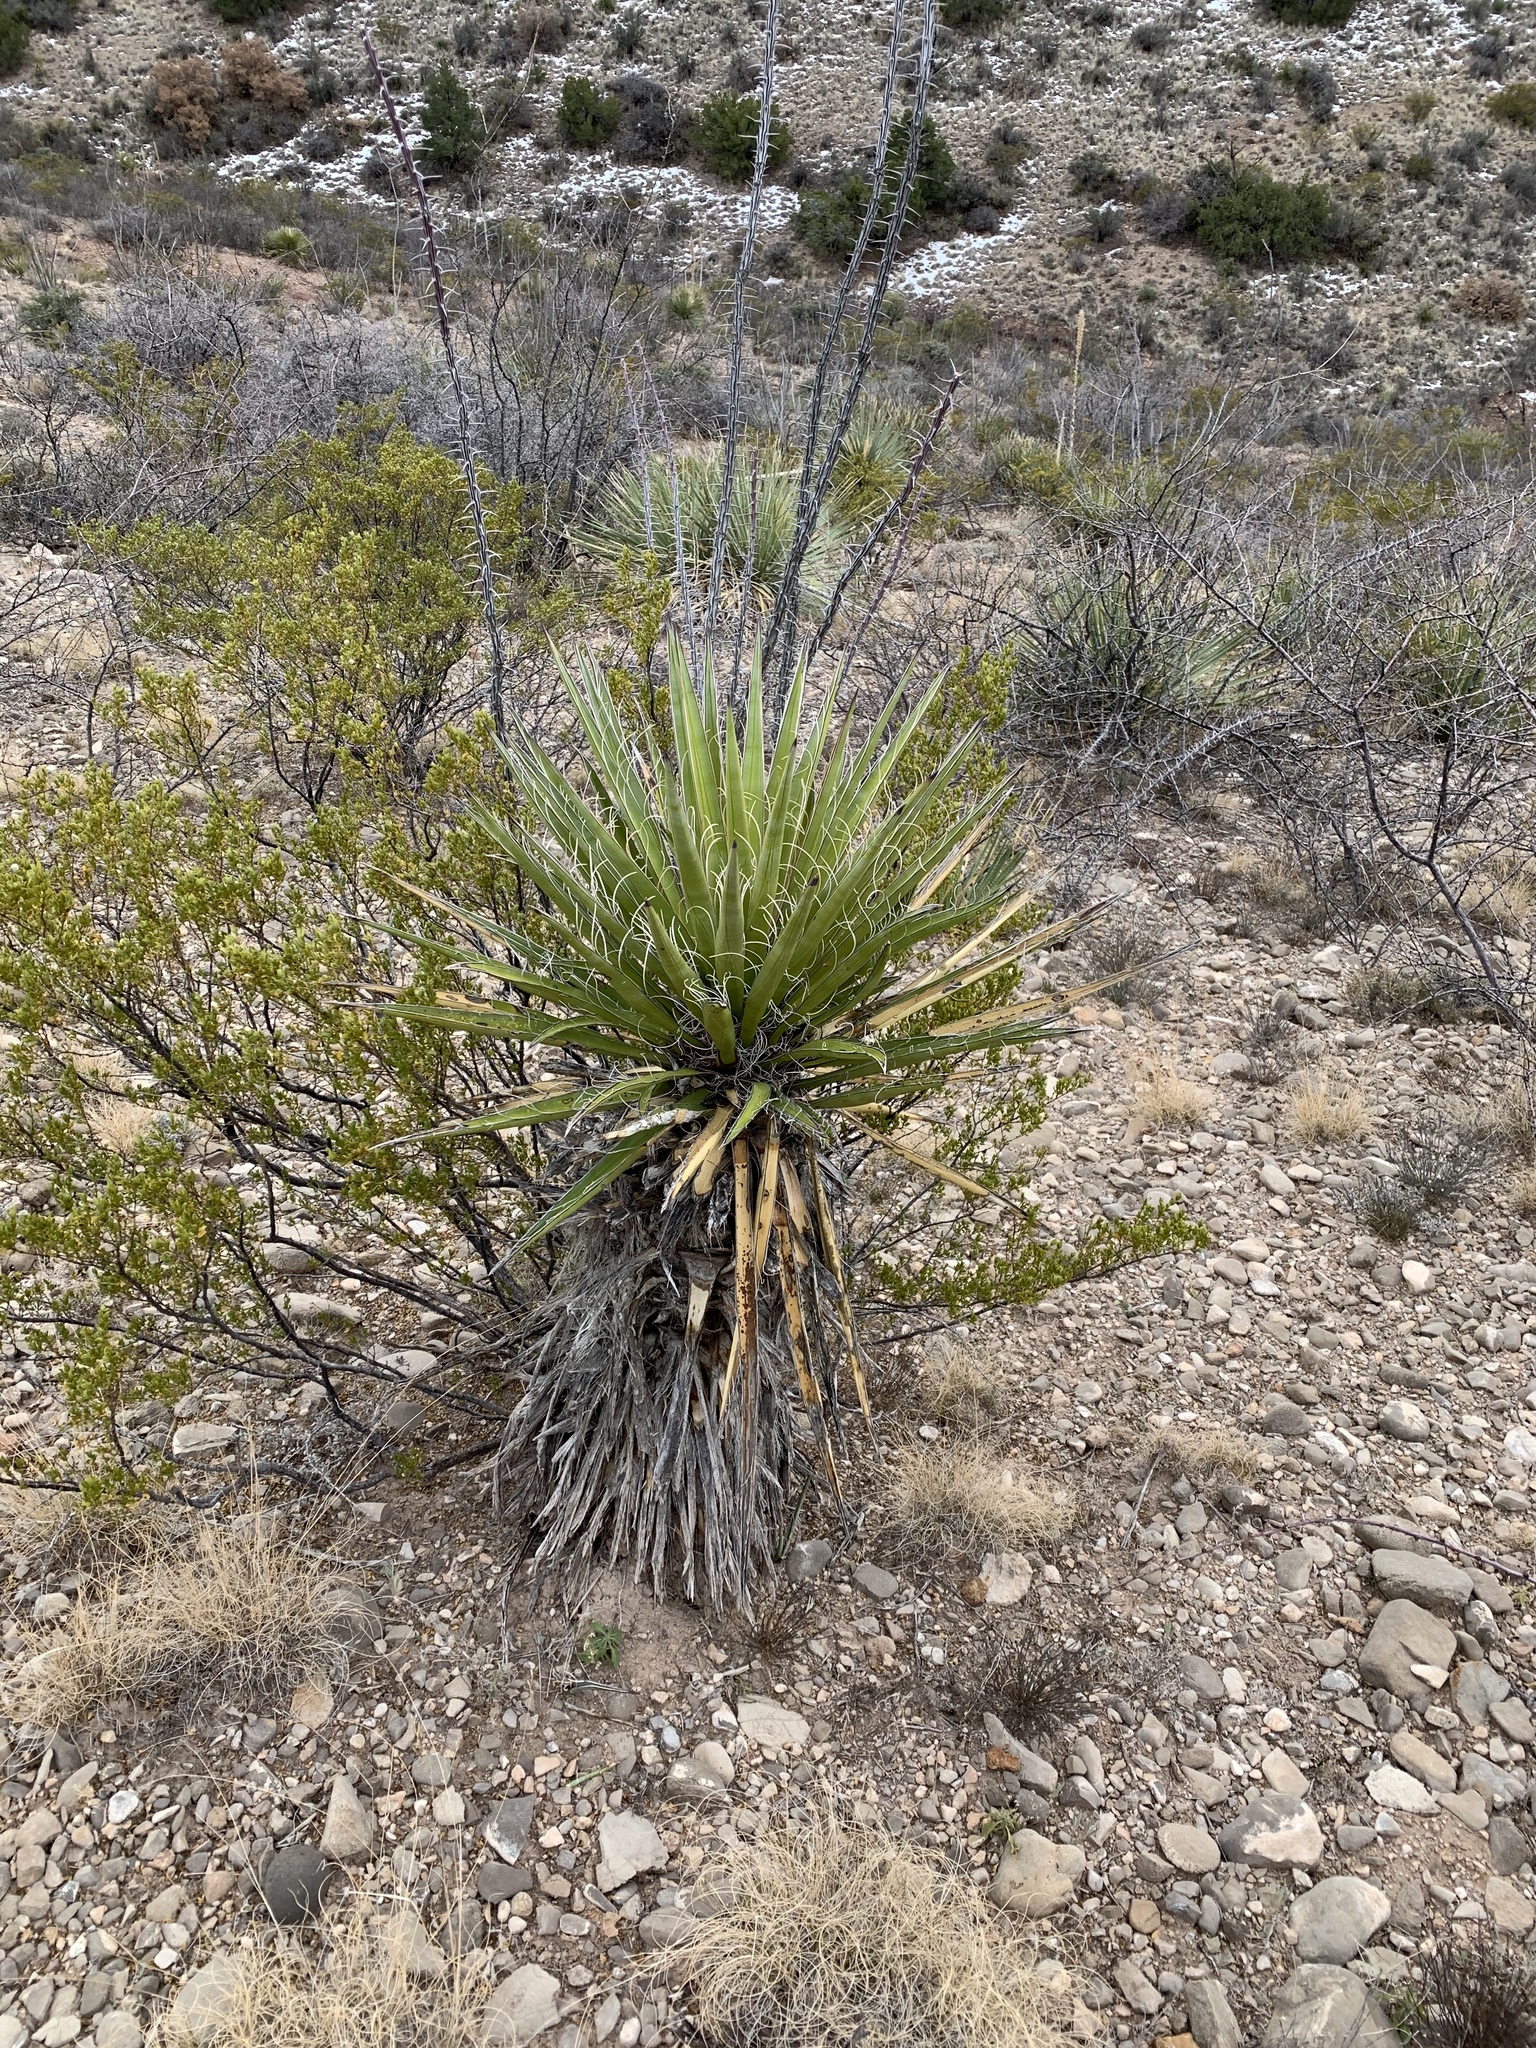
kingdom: Plantae
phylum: Tracheophyta
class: Liliopsida
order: Asparagales
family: Asparagaceae
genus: Yucca
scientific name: Yucca treculiana
